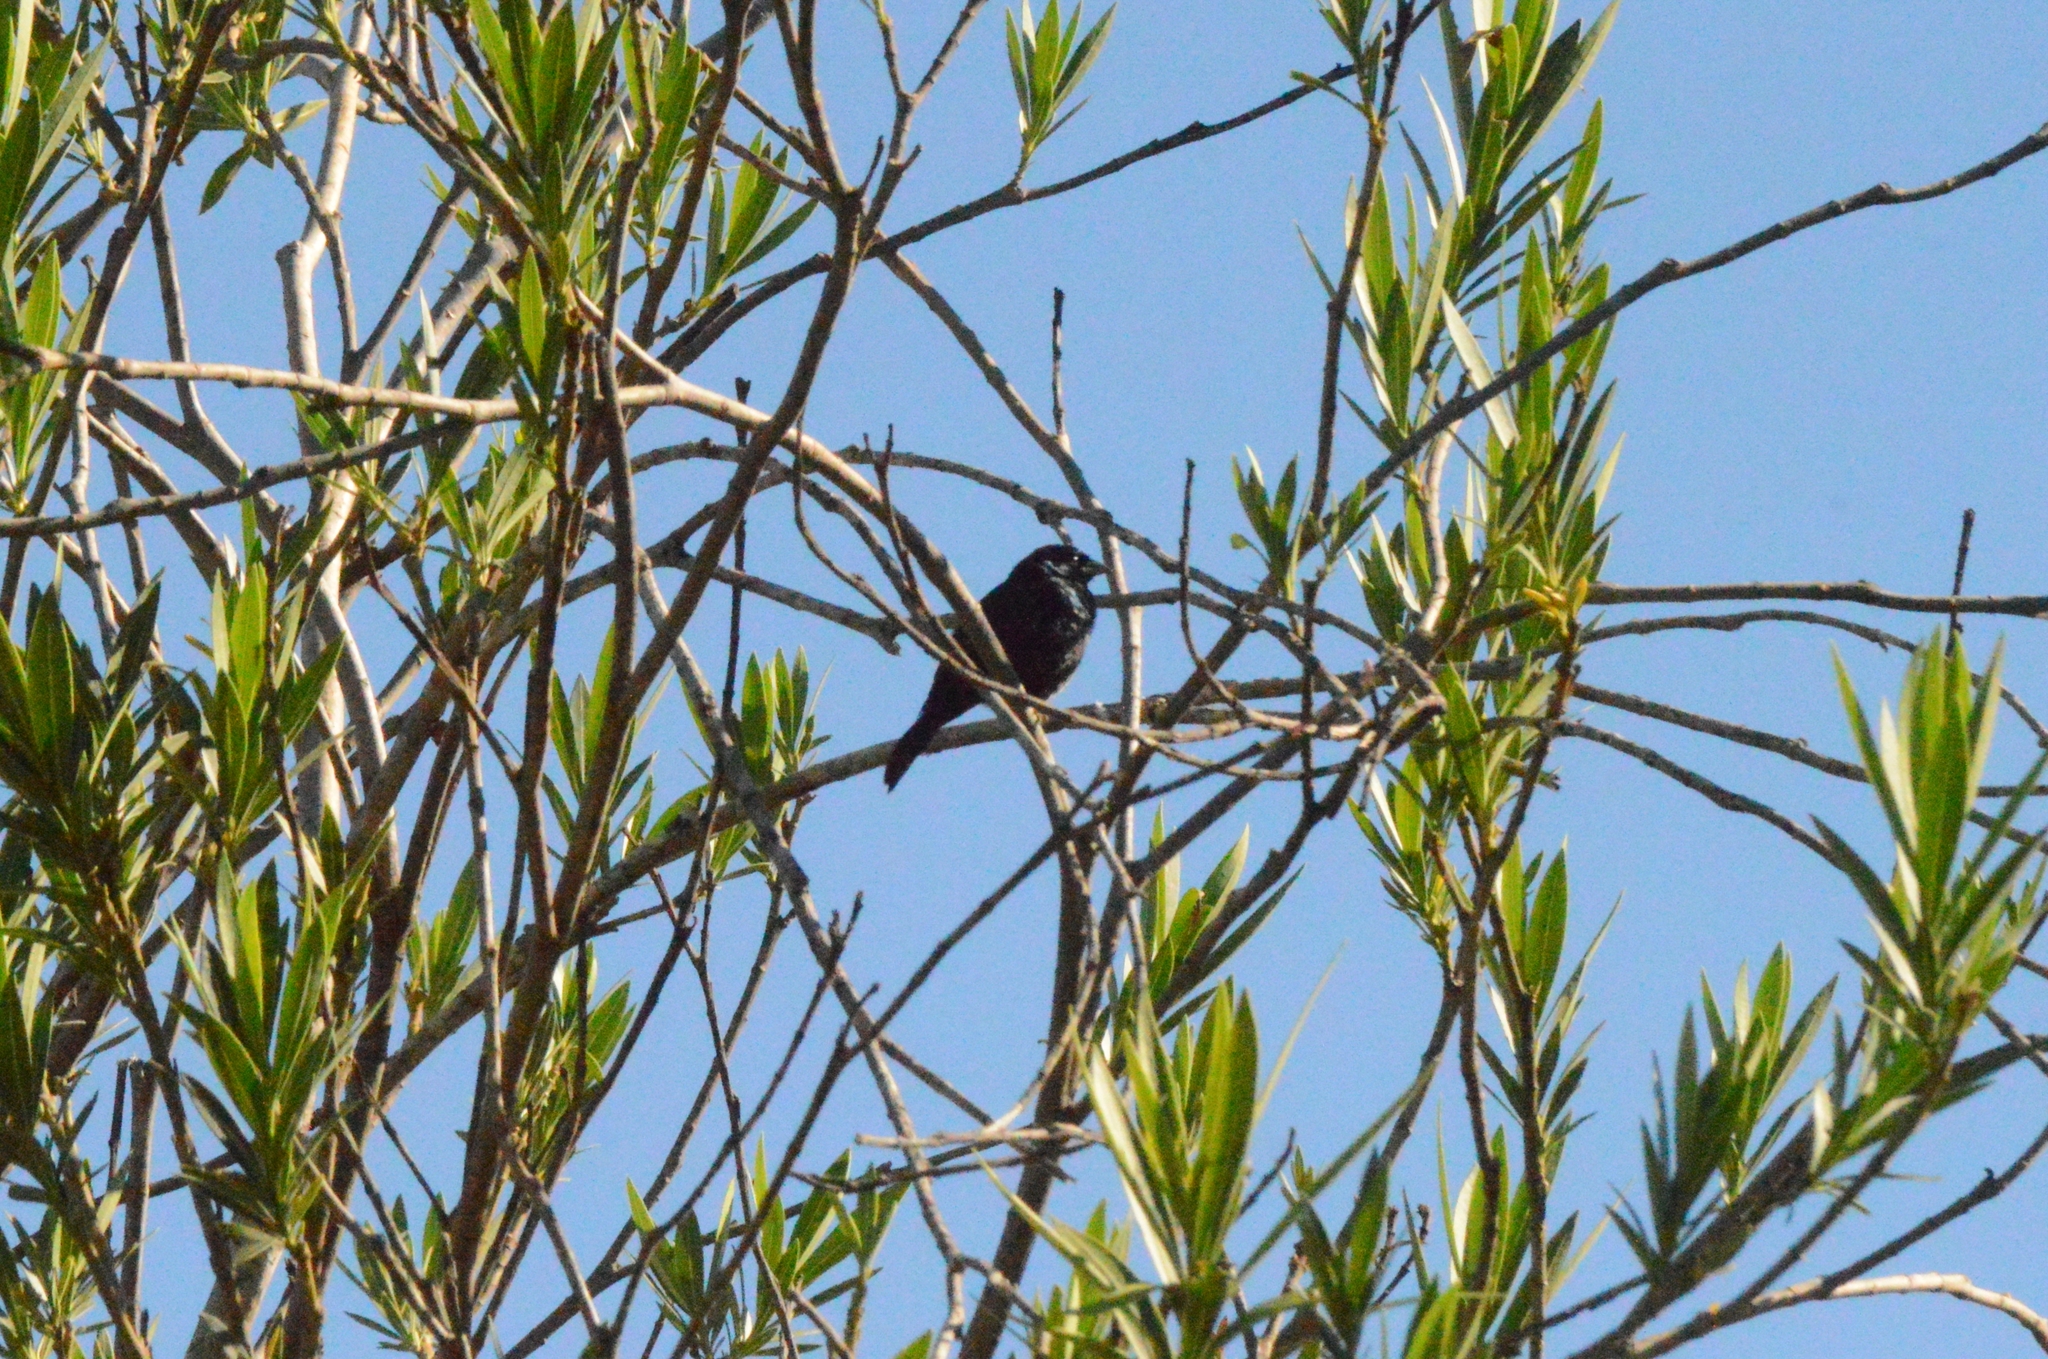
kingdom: Animalia
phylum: Chordata
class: Aves
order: Passeriformes
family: Thraupidae
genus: Volatinia
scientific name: Volatinia jacarina
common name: Blue-black grassquit
